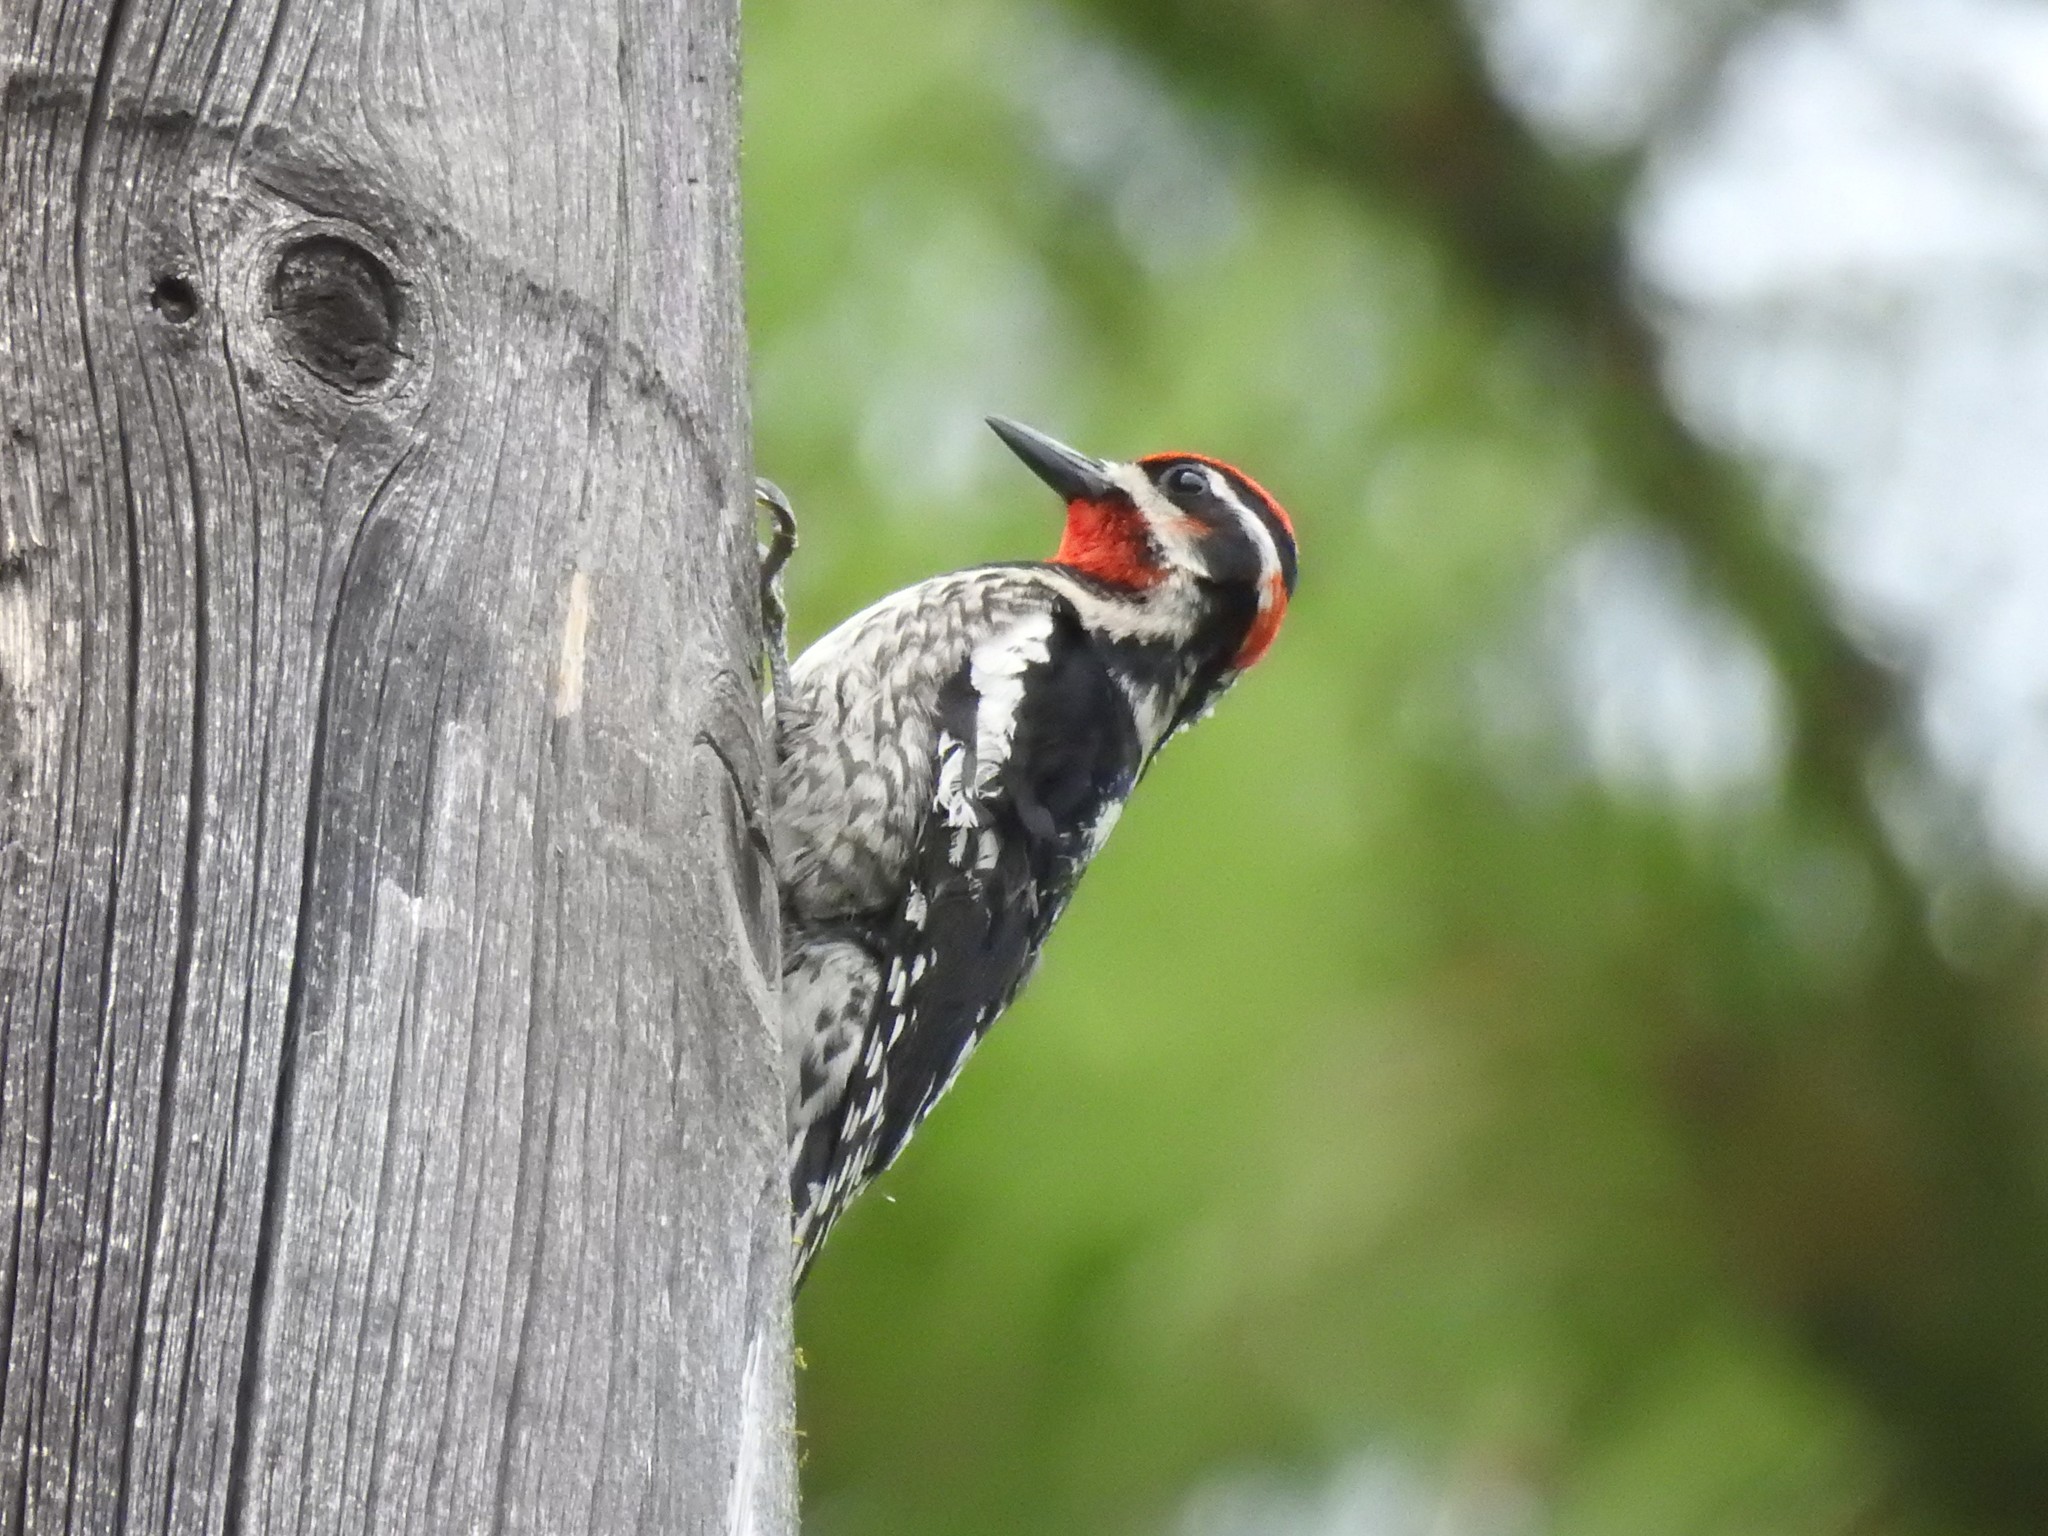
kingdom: Animalia
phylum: Chordata
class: Aves
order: Piciformes
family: Picidae
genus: Sphyrapicus
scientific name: Sphyrapicus nuchalis
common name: Red-naped sapsucker
